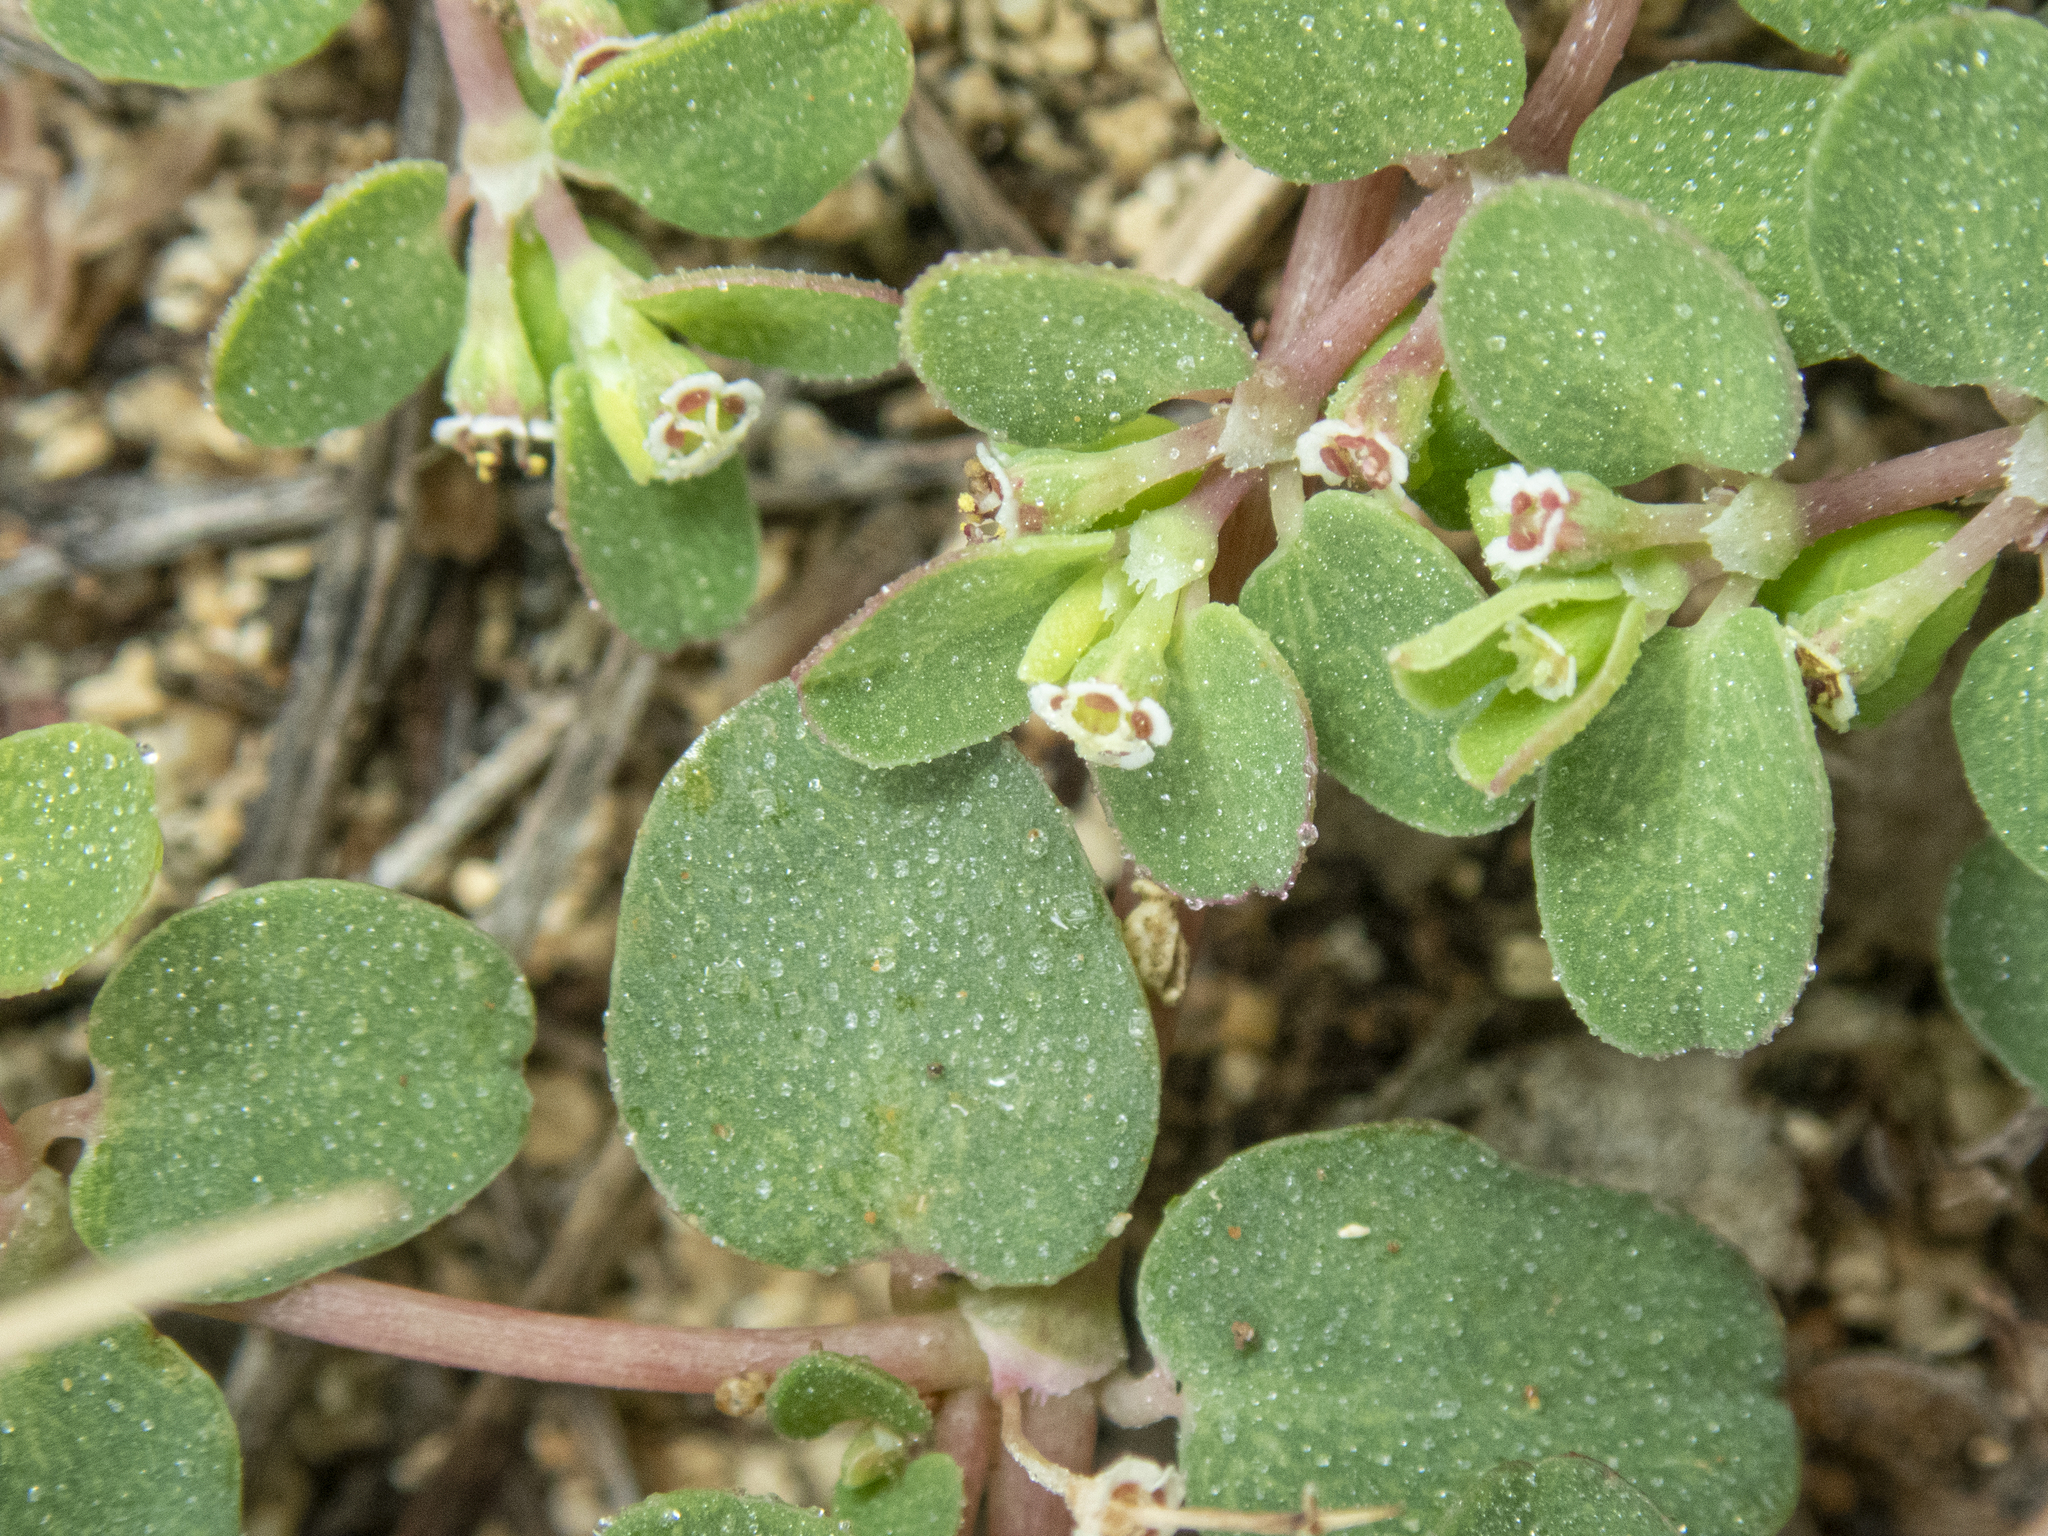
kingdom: Plantae
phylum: Tracheophyta
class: Magnoliopsida
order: Malpighiales
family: Euphorbiaceae
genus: Euphorbia
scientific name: Euphorbia serpens
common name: Matted sandmat
